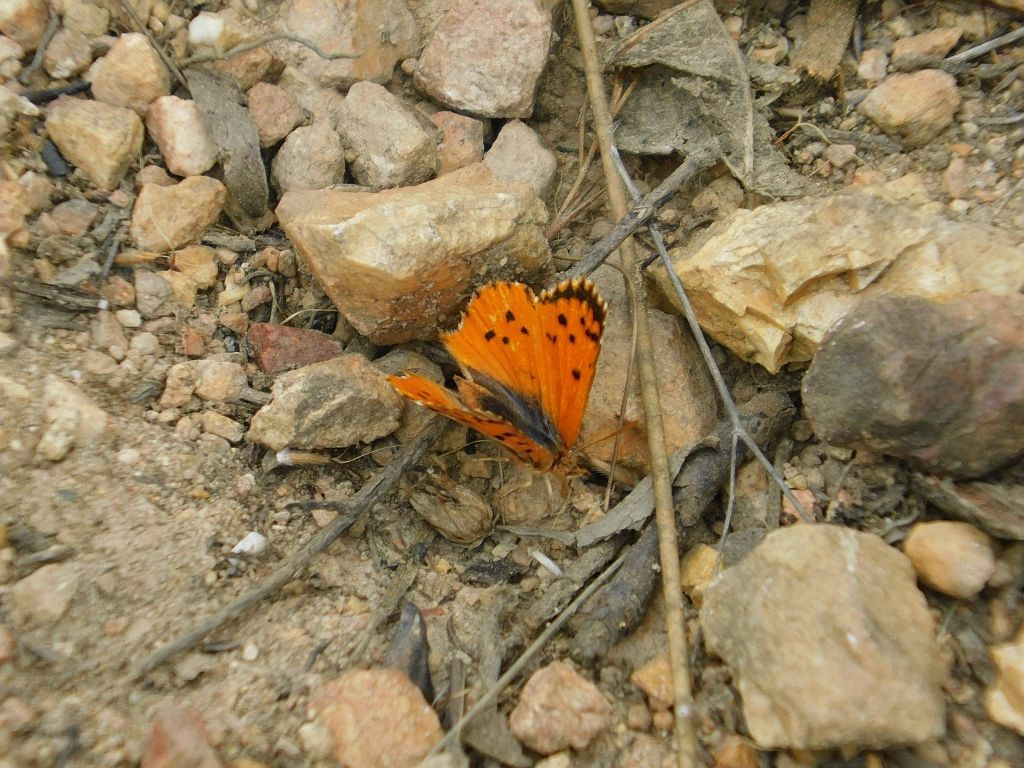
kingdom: Animalia
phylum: Arthropoda
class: Insecta
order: Lepidoptera
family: Lycaenidae
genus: Chrysoritis
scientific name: Chrysoritis
